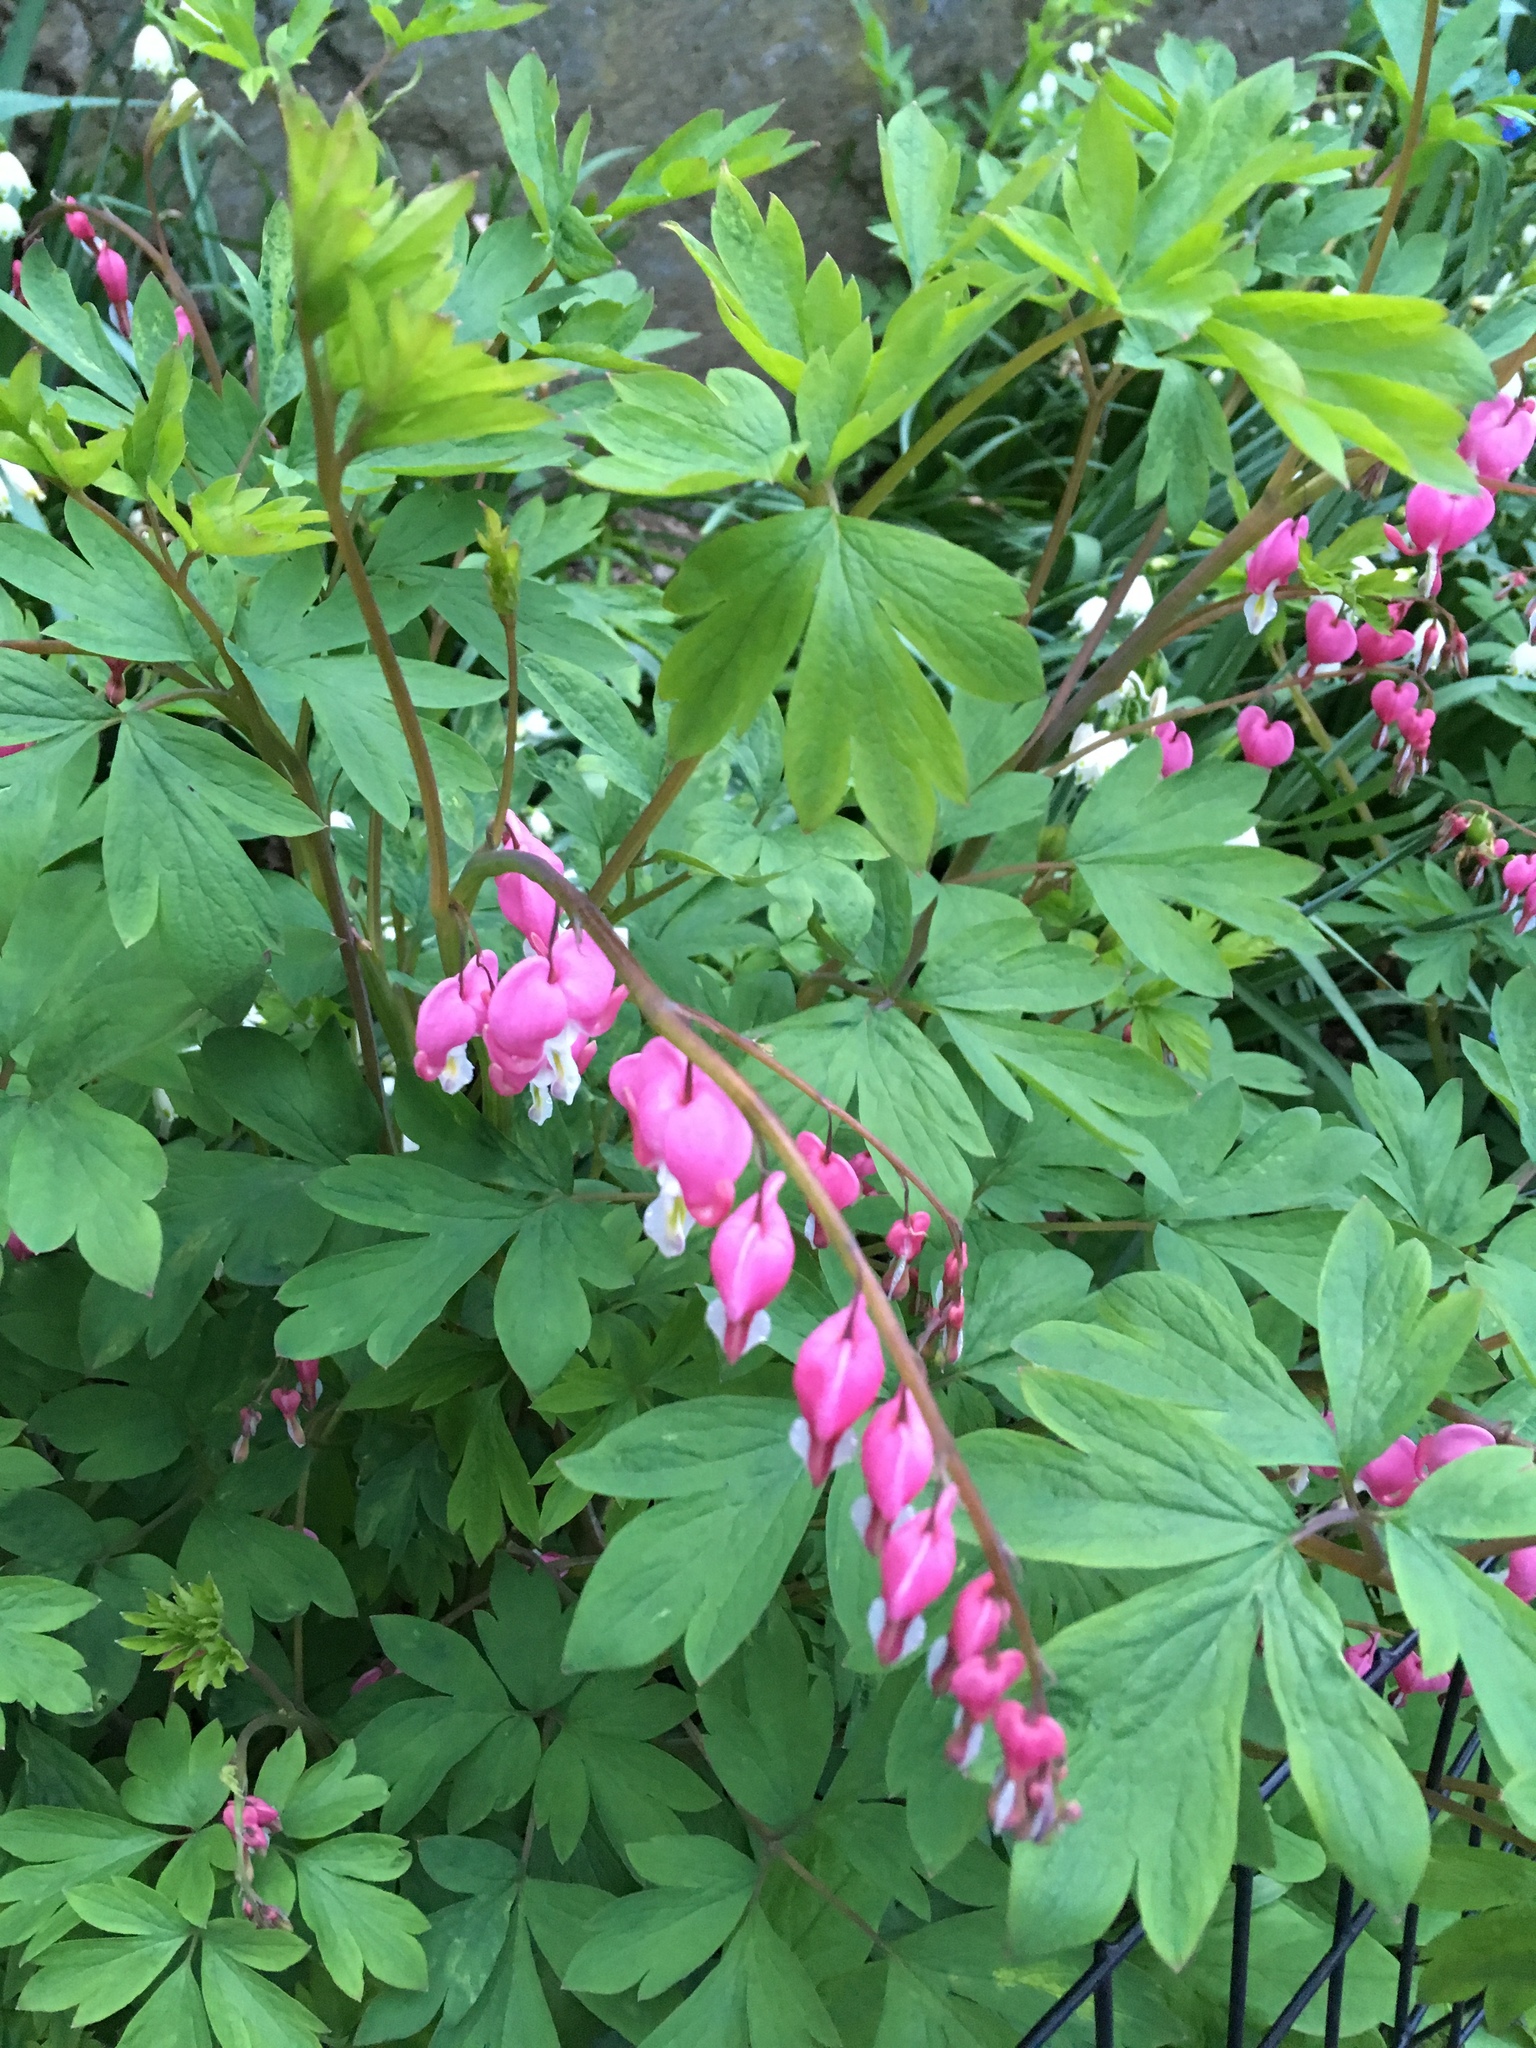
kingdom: Plantae
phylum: Tracheophyta
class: Magnoliopsida
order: Ranunculales
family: Papaveraceae
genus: Lamprocapnos
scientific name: Lamprocapnos spectabilis
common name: Asian bleeding-heart
